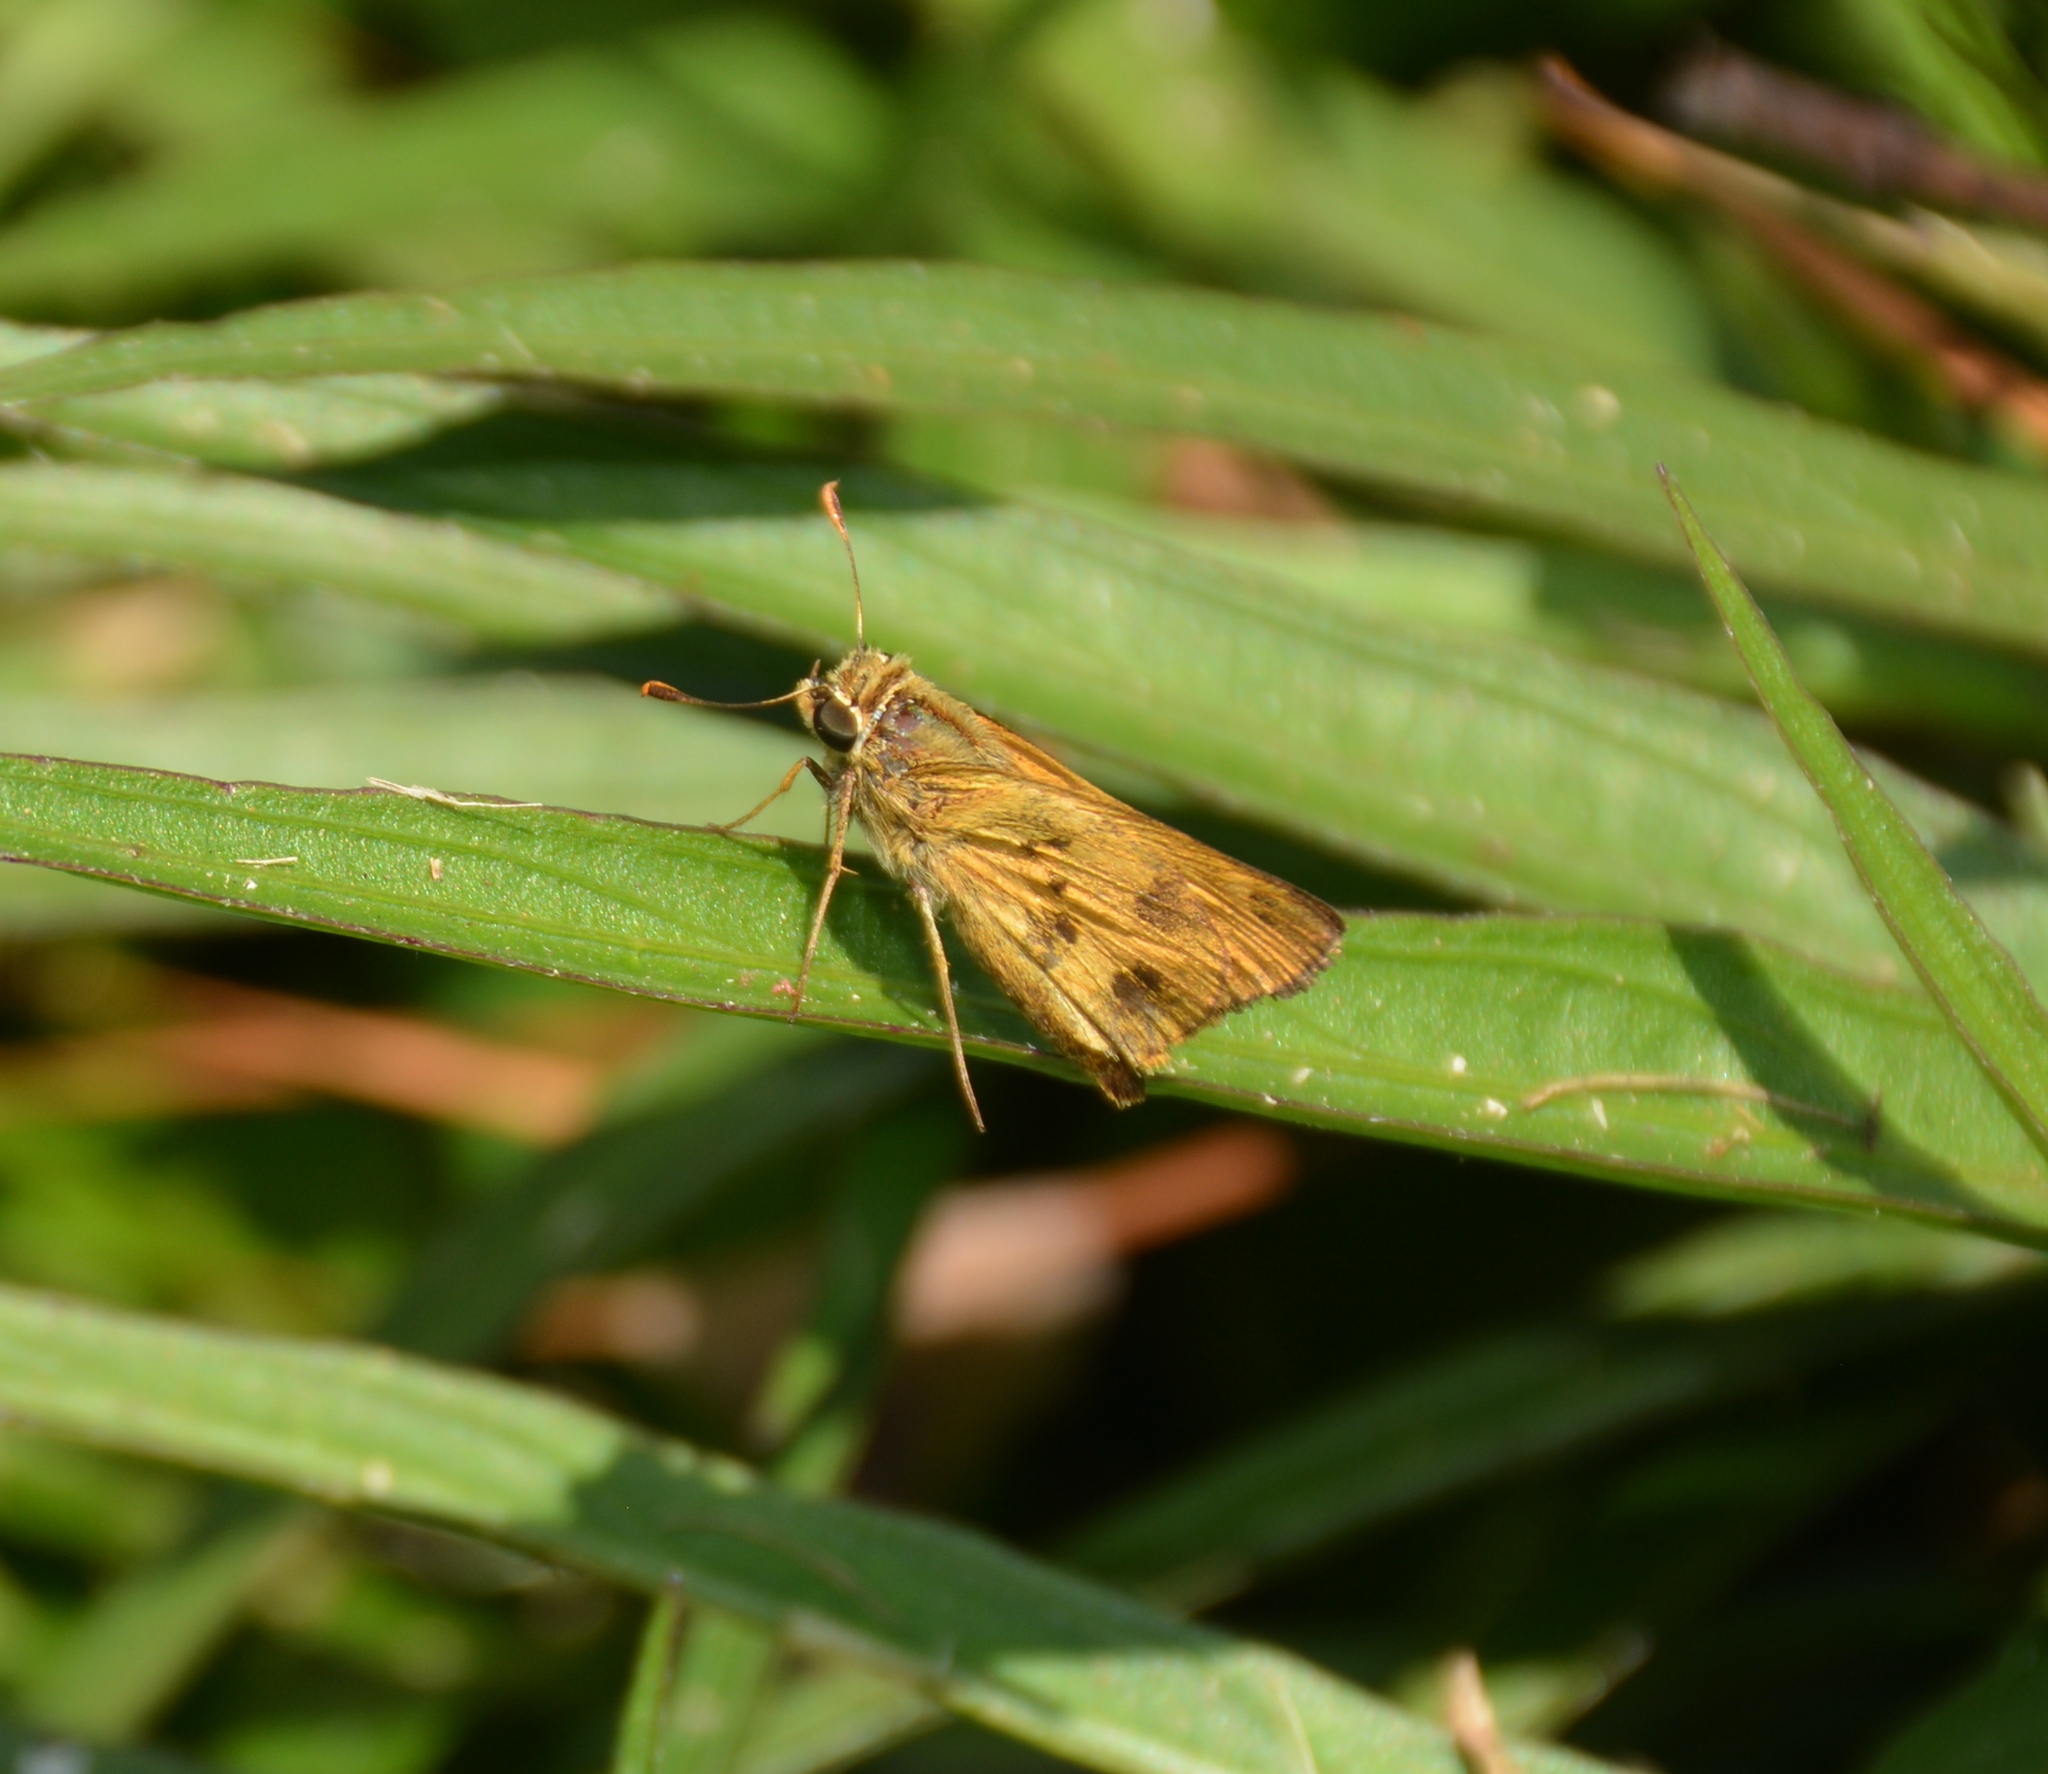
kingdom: Animalia
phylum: Arthropoda
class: Insecta
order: Lepidoptera
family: Hesperiidae
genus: Polites
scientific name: Polites vibex
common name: Whirlabout
